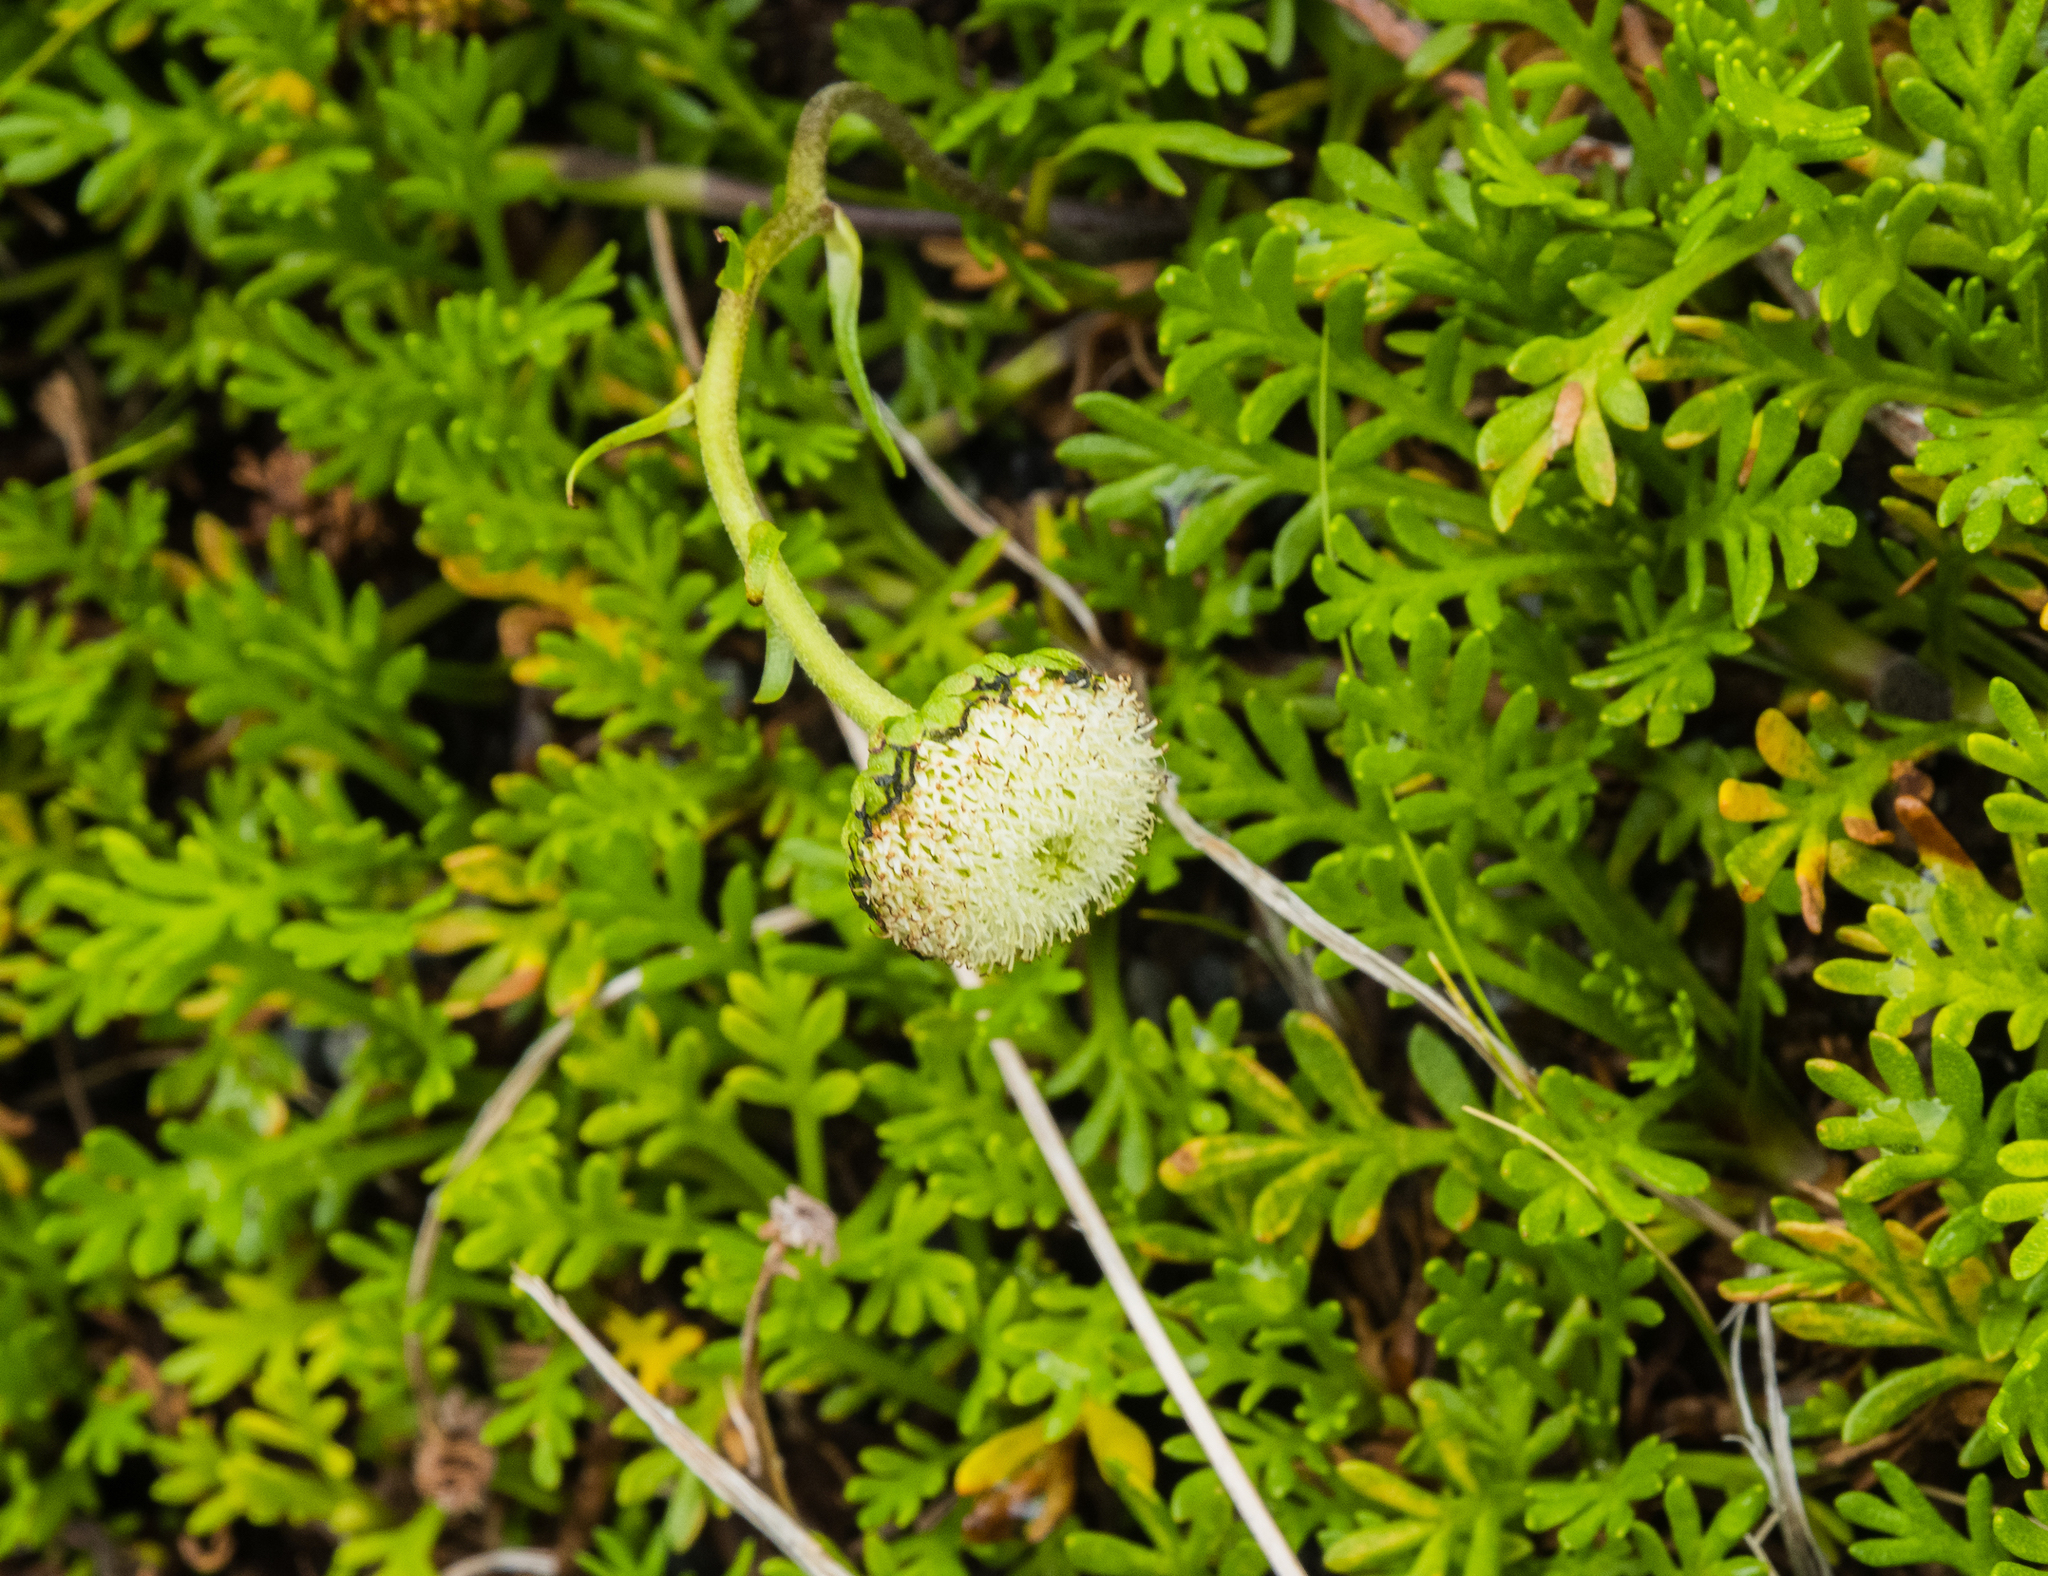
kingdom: Plantae
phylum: Tracheophyta
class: Magnoliopsida
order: Asterales
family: Asteraceae
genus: Leptinella
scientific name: Leptinella pyrethrifolia
